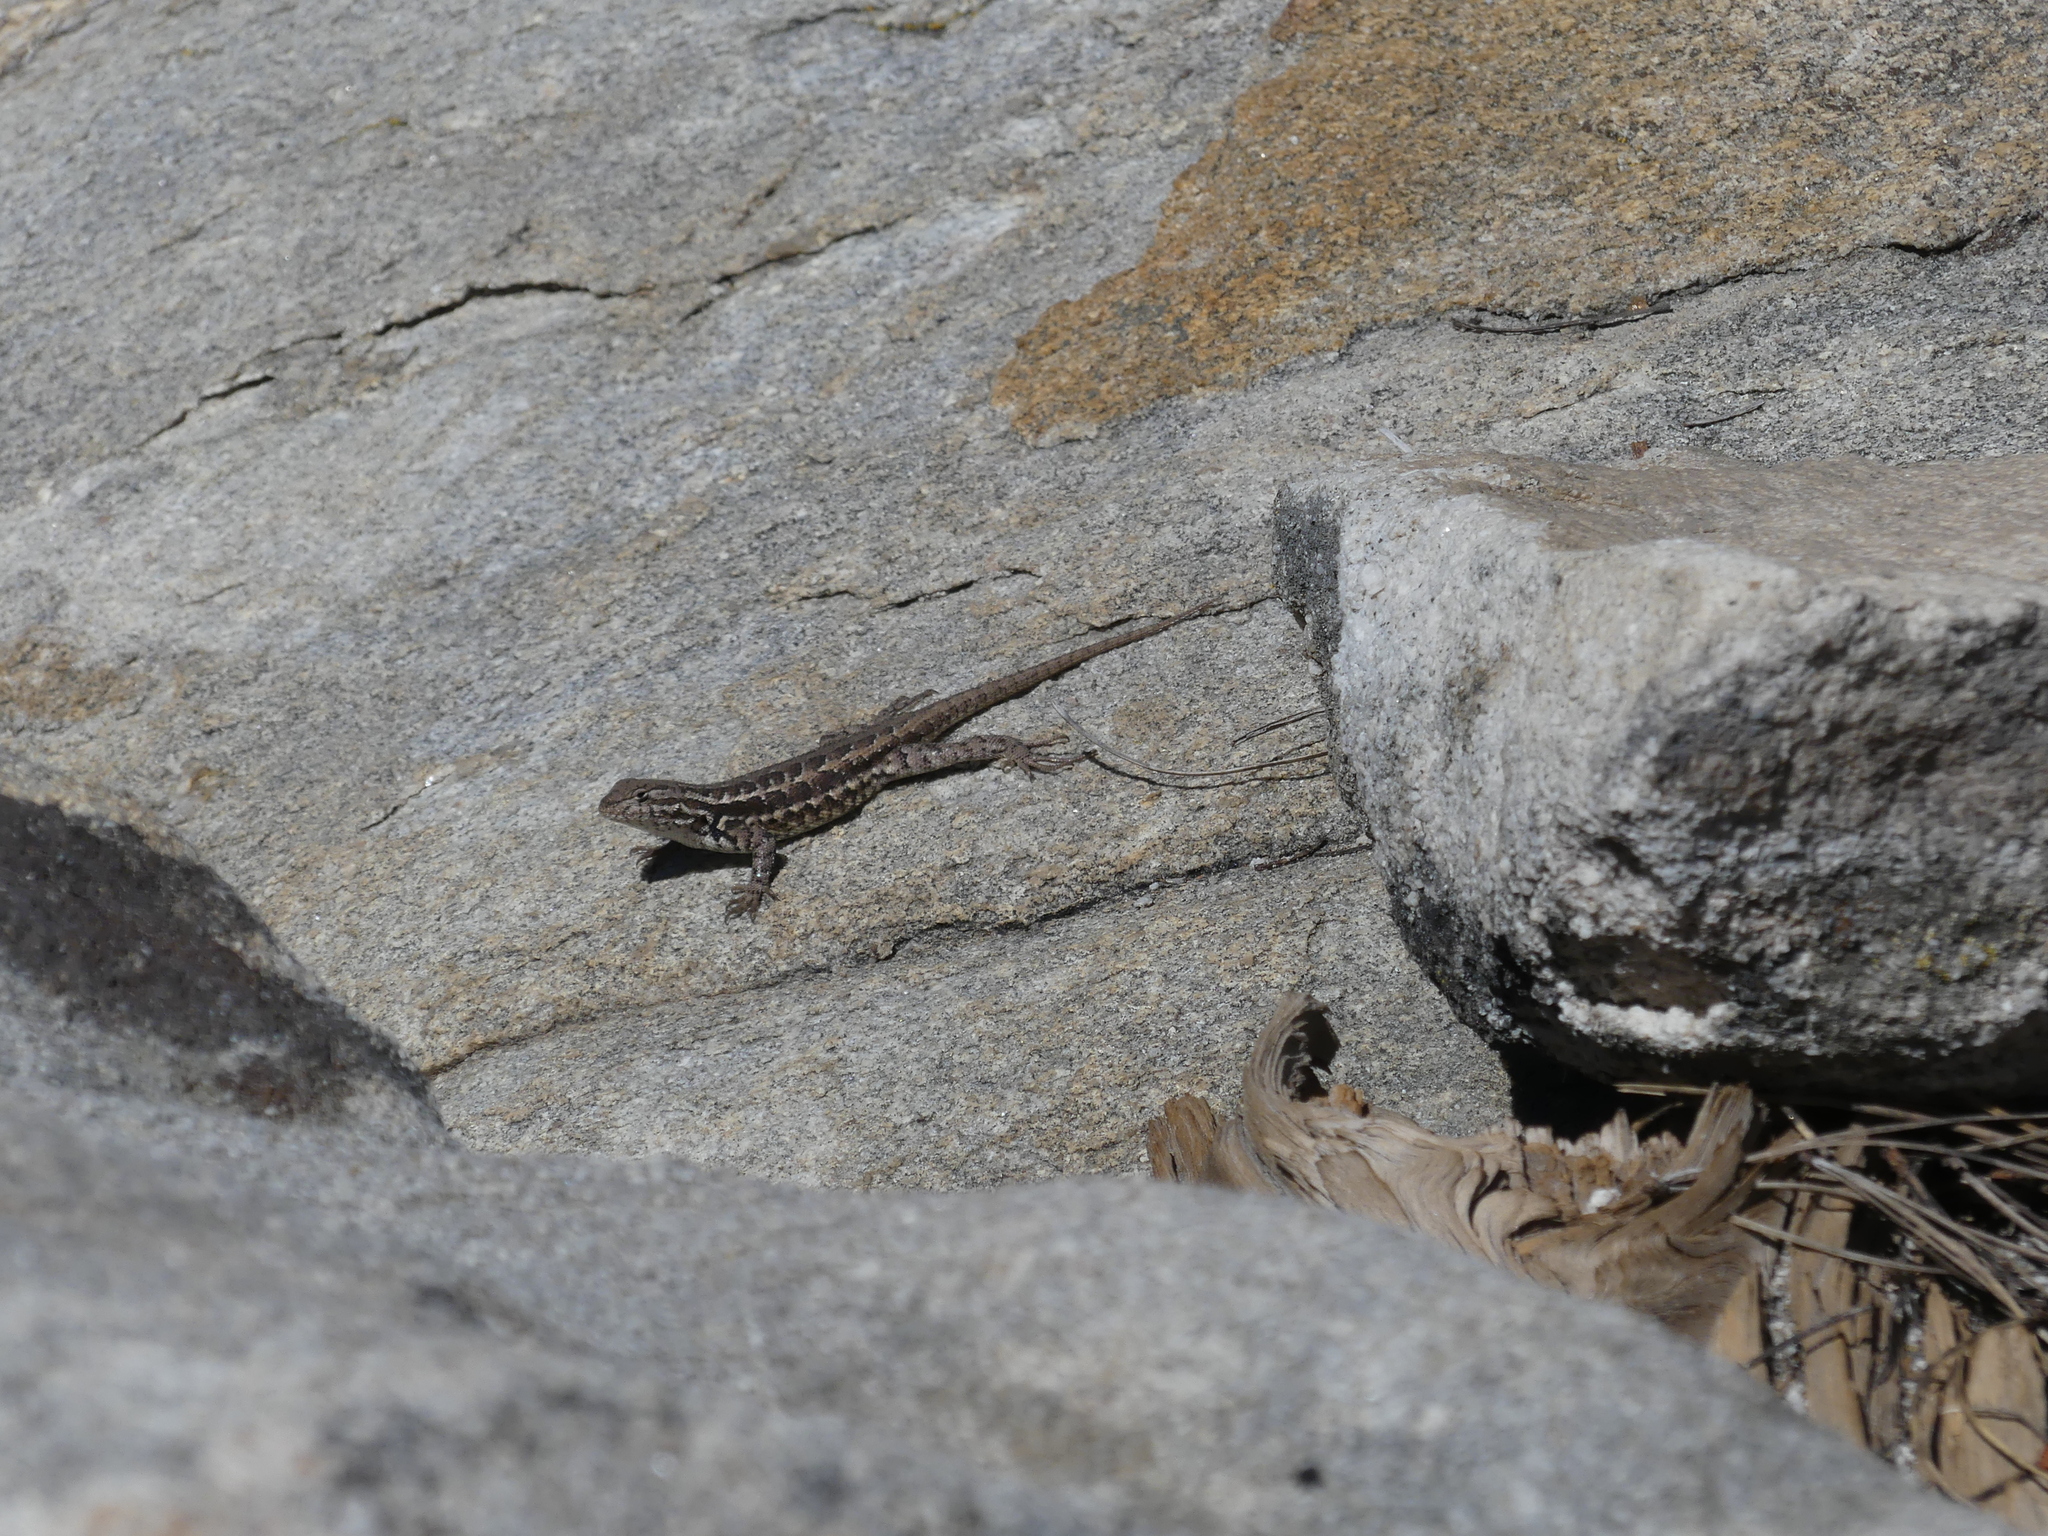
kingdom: Animalia
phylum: Chordata
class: Squamata
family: Phrynosomatidae
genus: Sceloporus
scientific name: Sceloporus graciosus
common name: Sagebrush lizard
